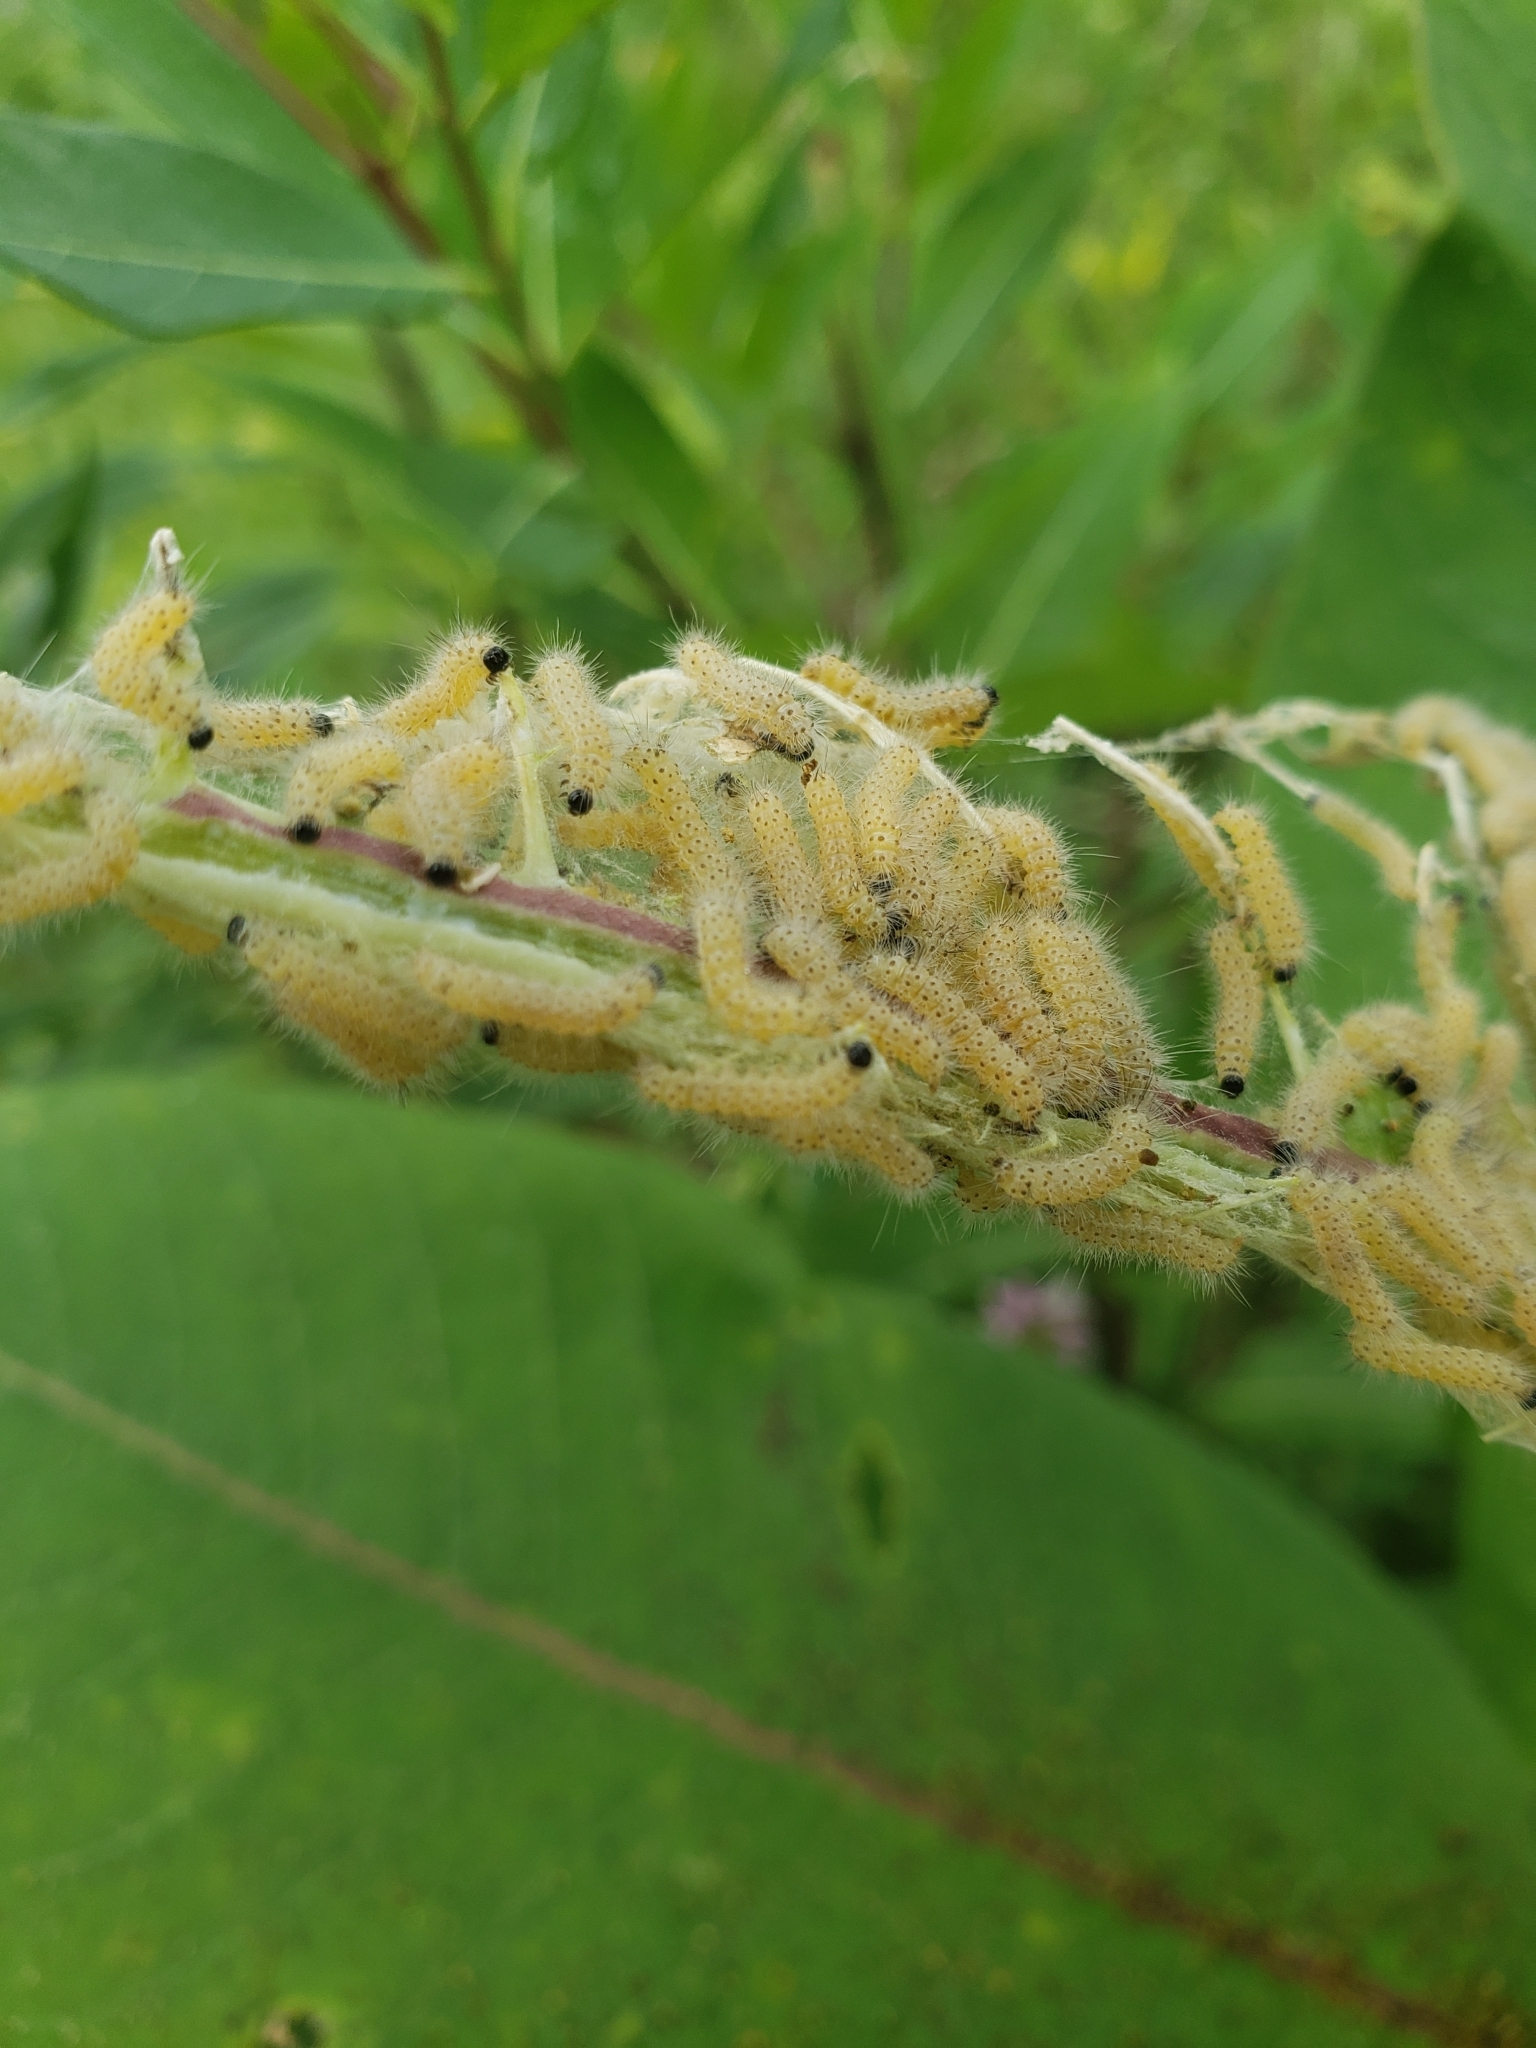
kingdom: Animalia
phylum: Arthropoda
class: Insecta
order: Lepidoptera
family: Erebidae
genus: Euchaetes
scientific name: Euchaetes egle
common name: Milkweed tussock moth
